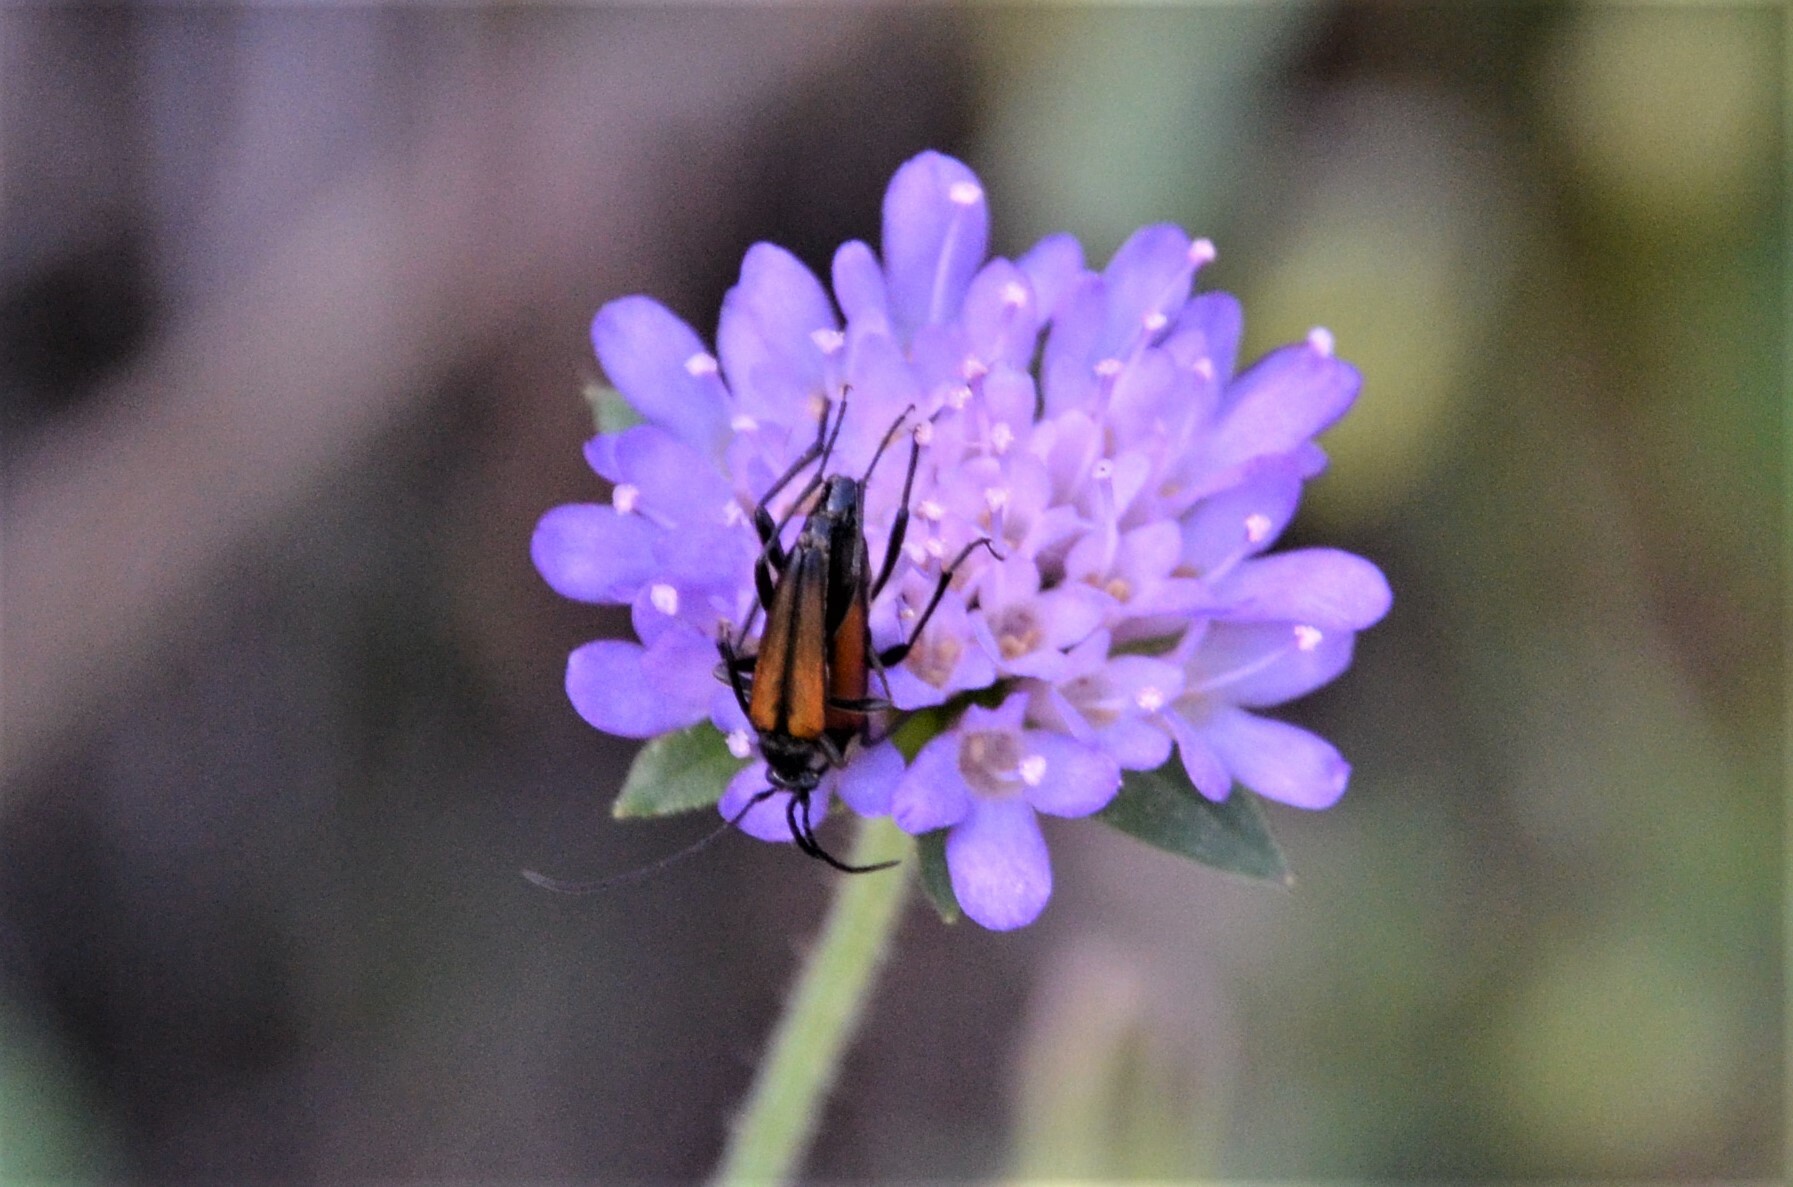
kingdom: Animalia
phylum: Arthropoda
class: Insecta
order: Coleoptera
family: Cerambycidae
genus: Stenurella
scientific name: Stenurella melanura
